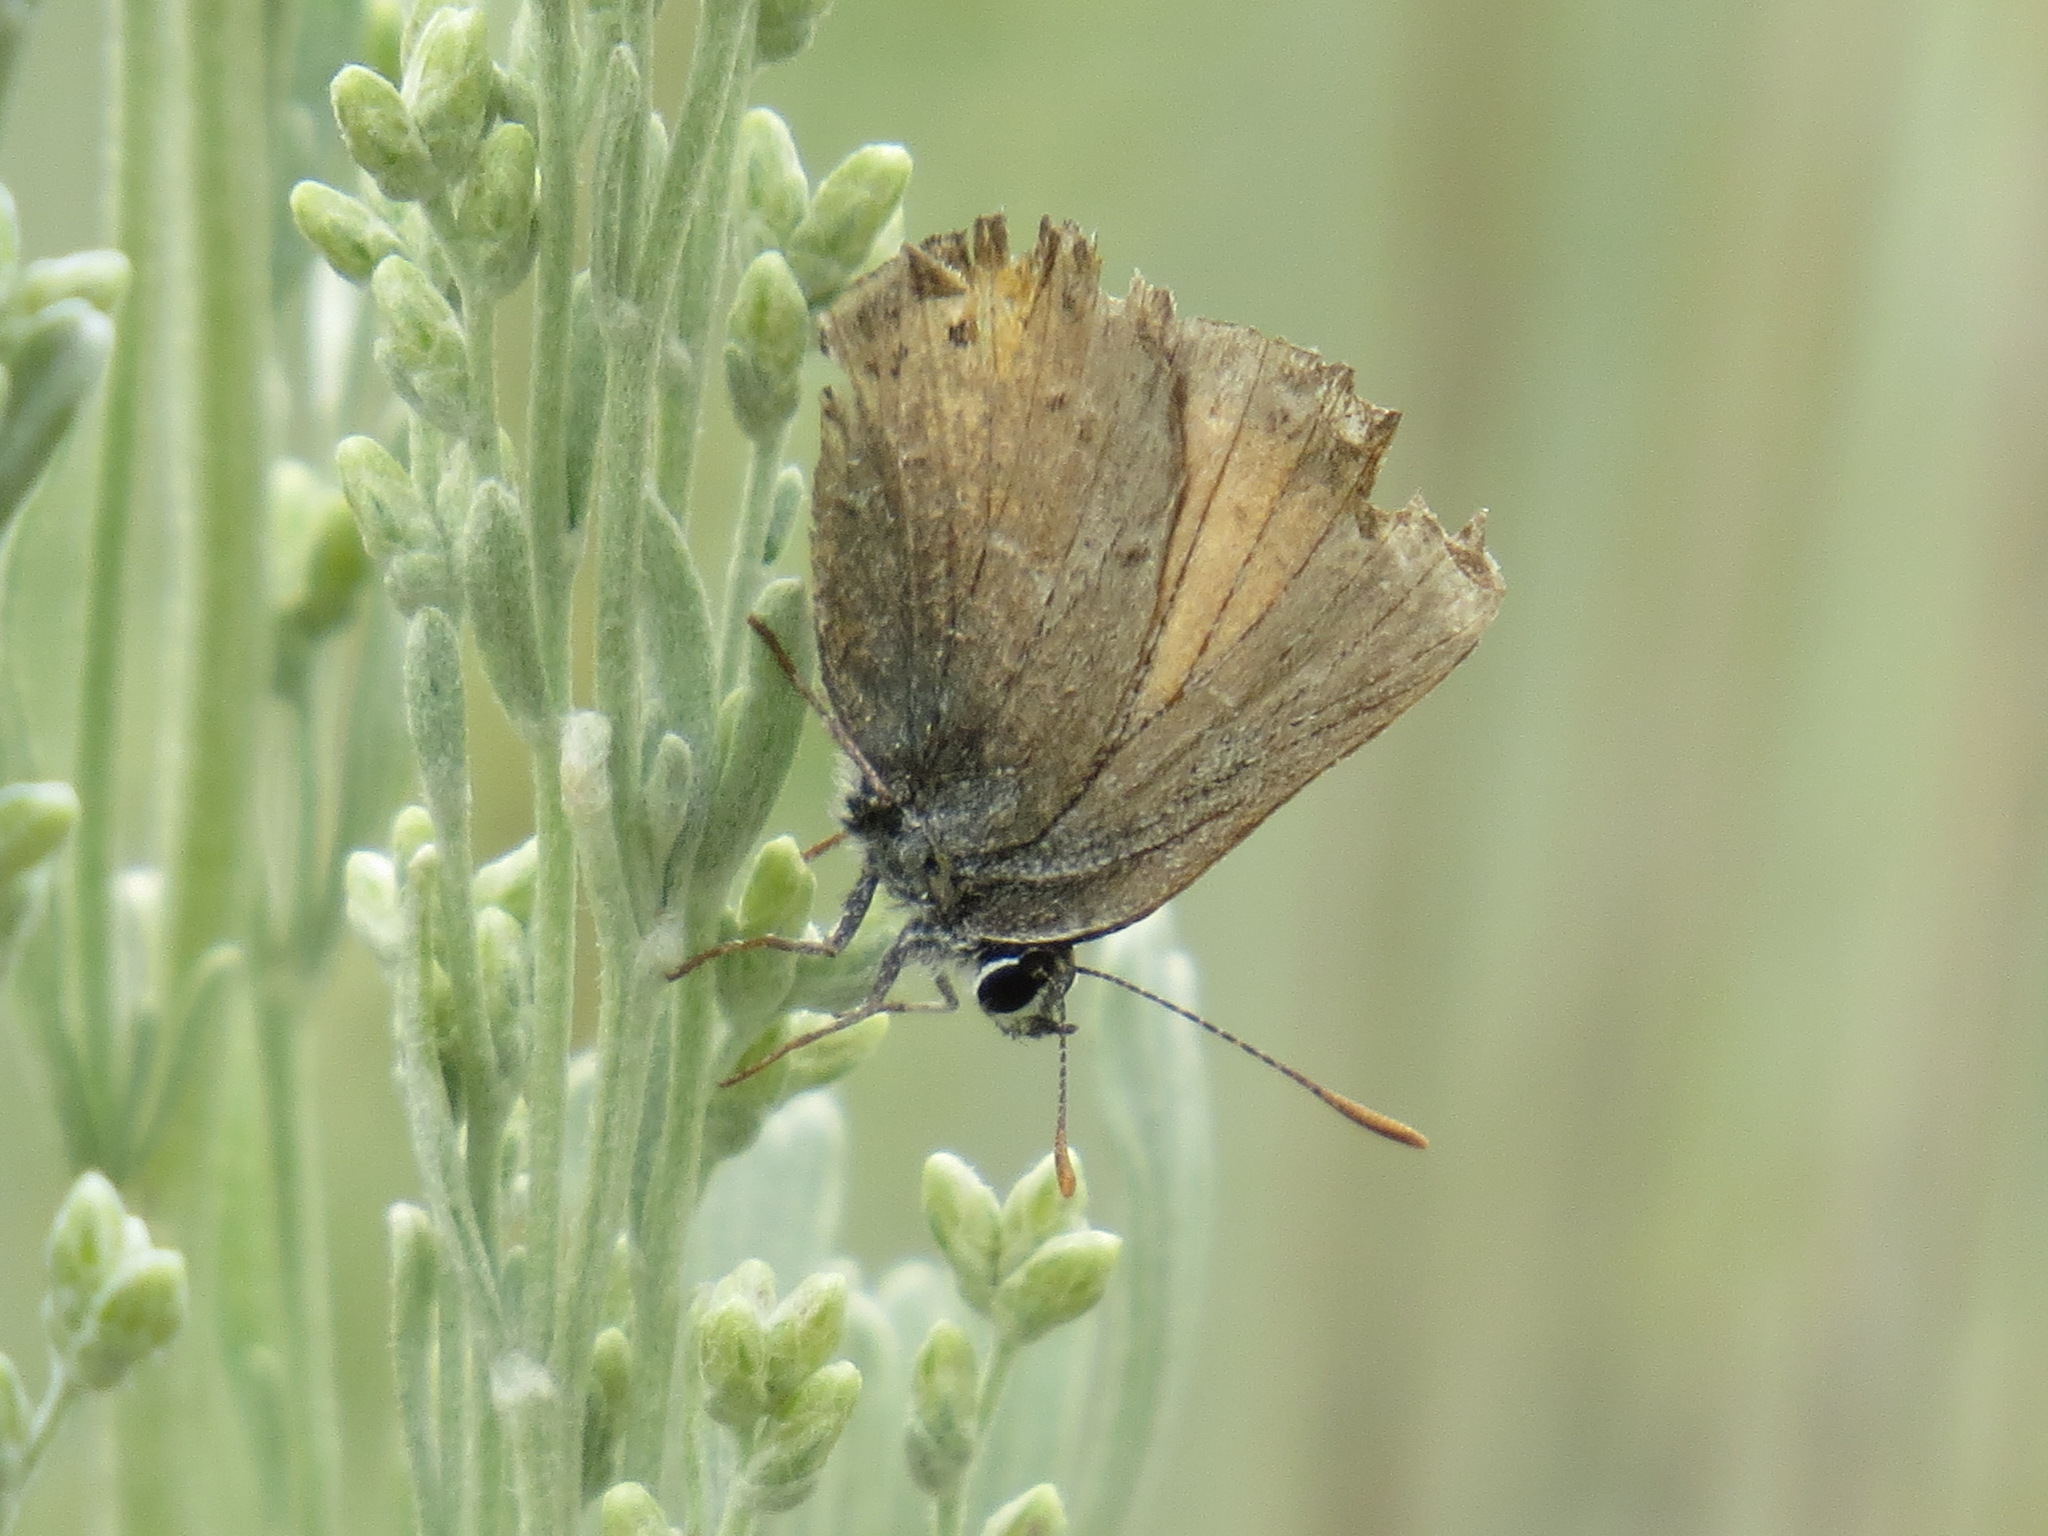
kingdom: Animalia
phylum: Arthropoda
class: Insecta
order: Lepidoptera
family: Lycaenidae
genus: Satyrium
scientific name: Satyrium behrii
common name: Behr's hairstreak
